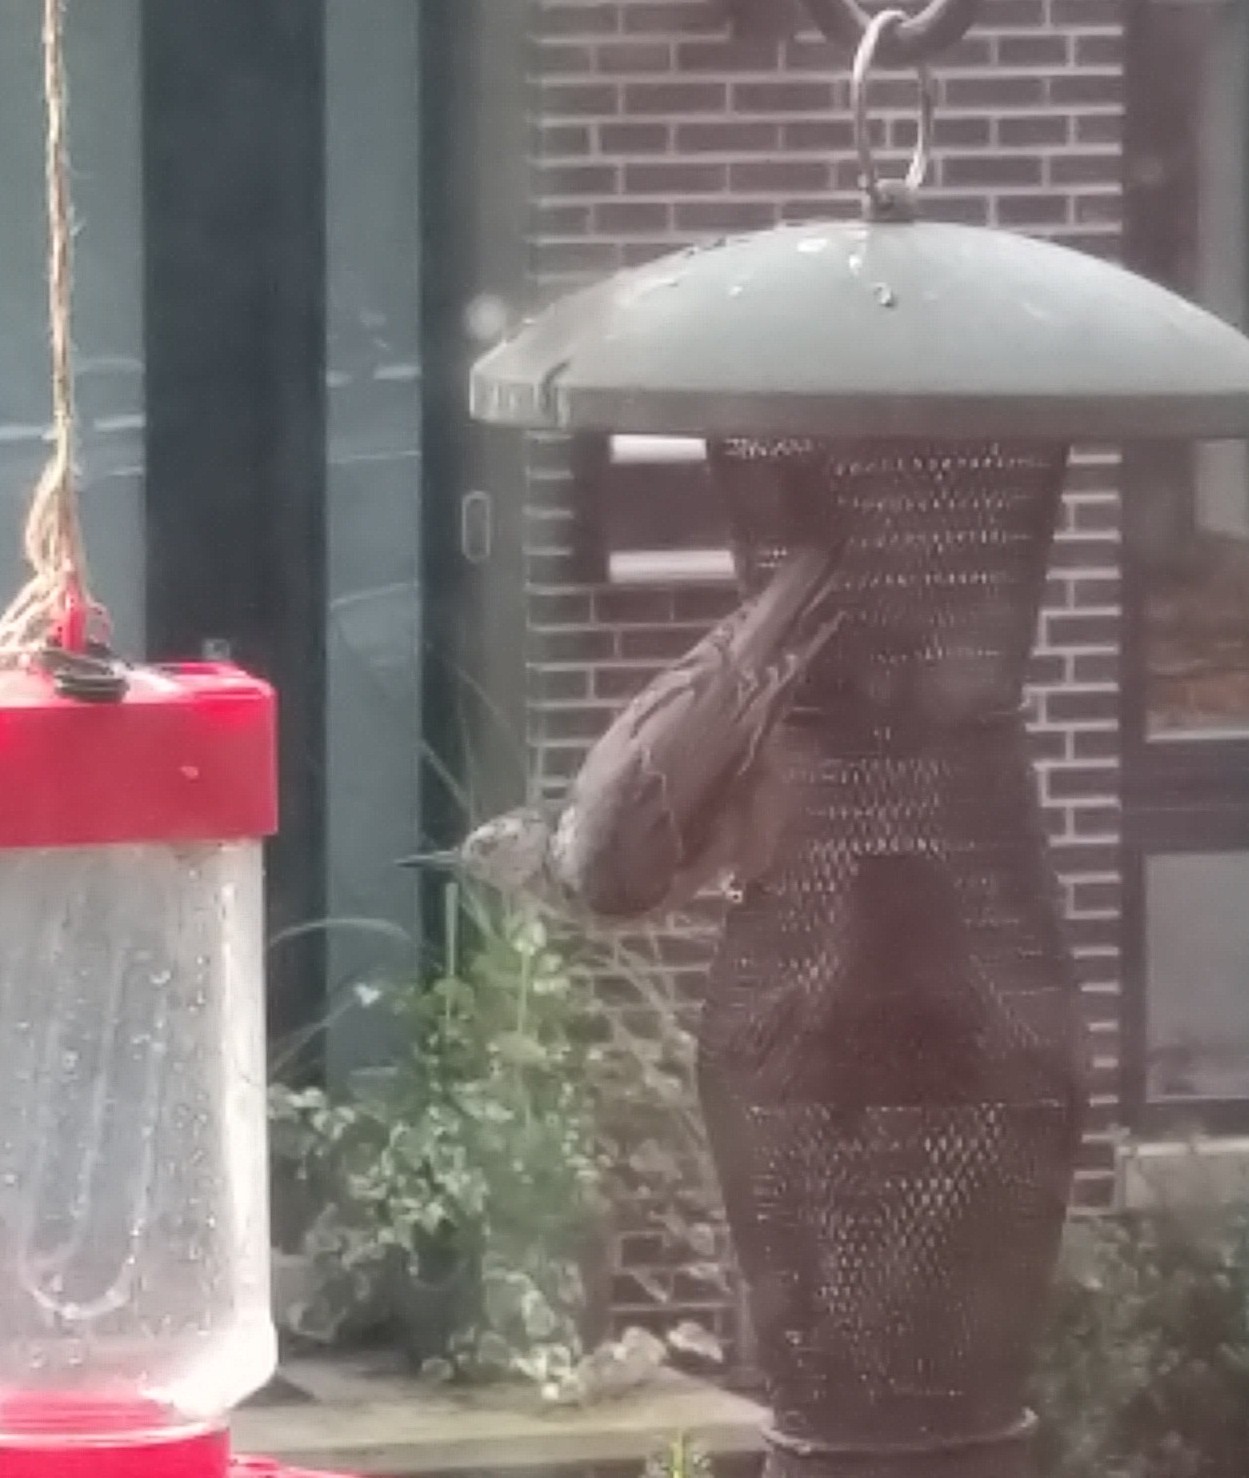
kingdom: Animalia
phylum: Chordata
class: Aves
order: Passeriformes
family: Sittidae
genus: Sitta
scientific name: Sitta carolinensis
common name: White-breasted nuthatch
